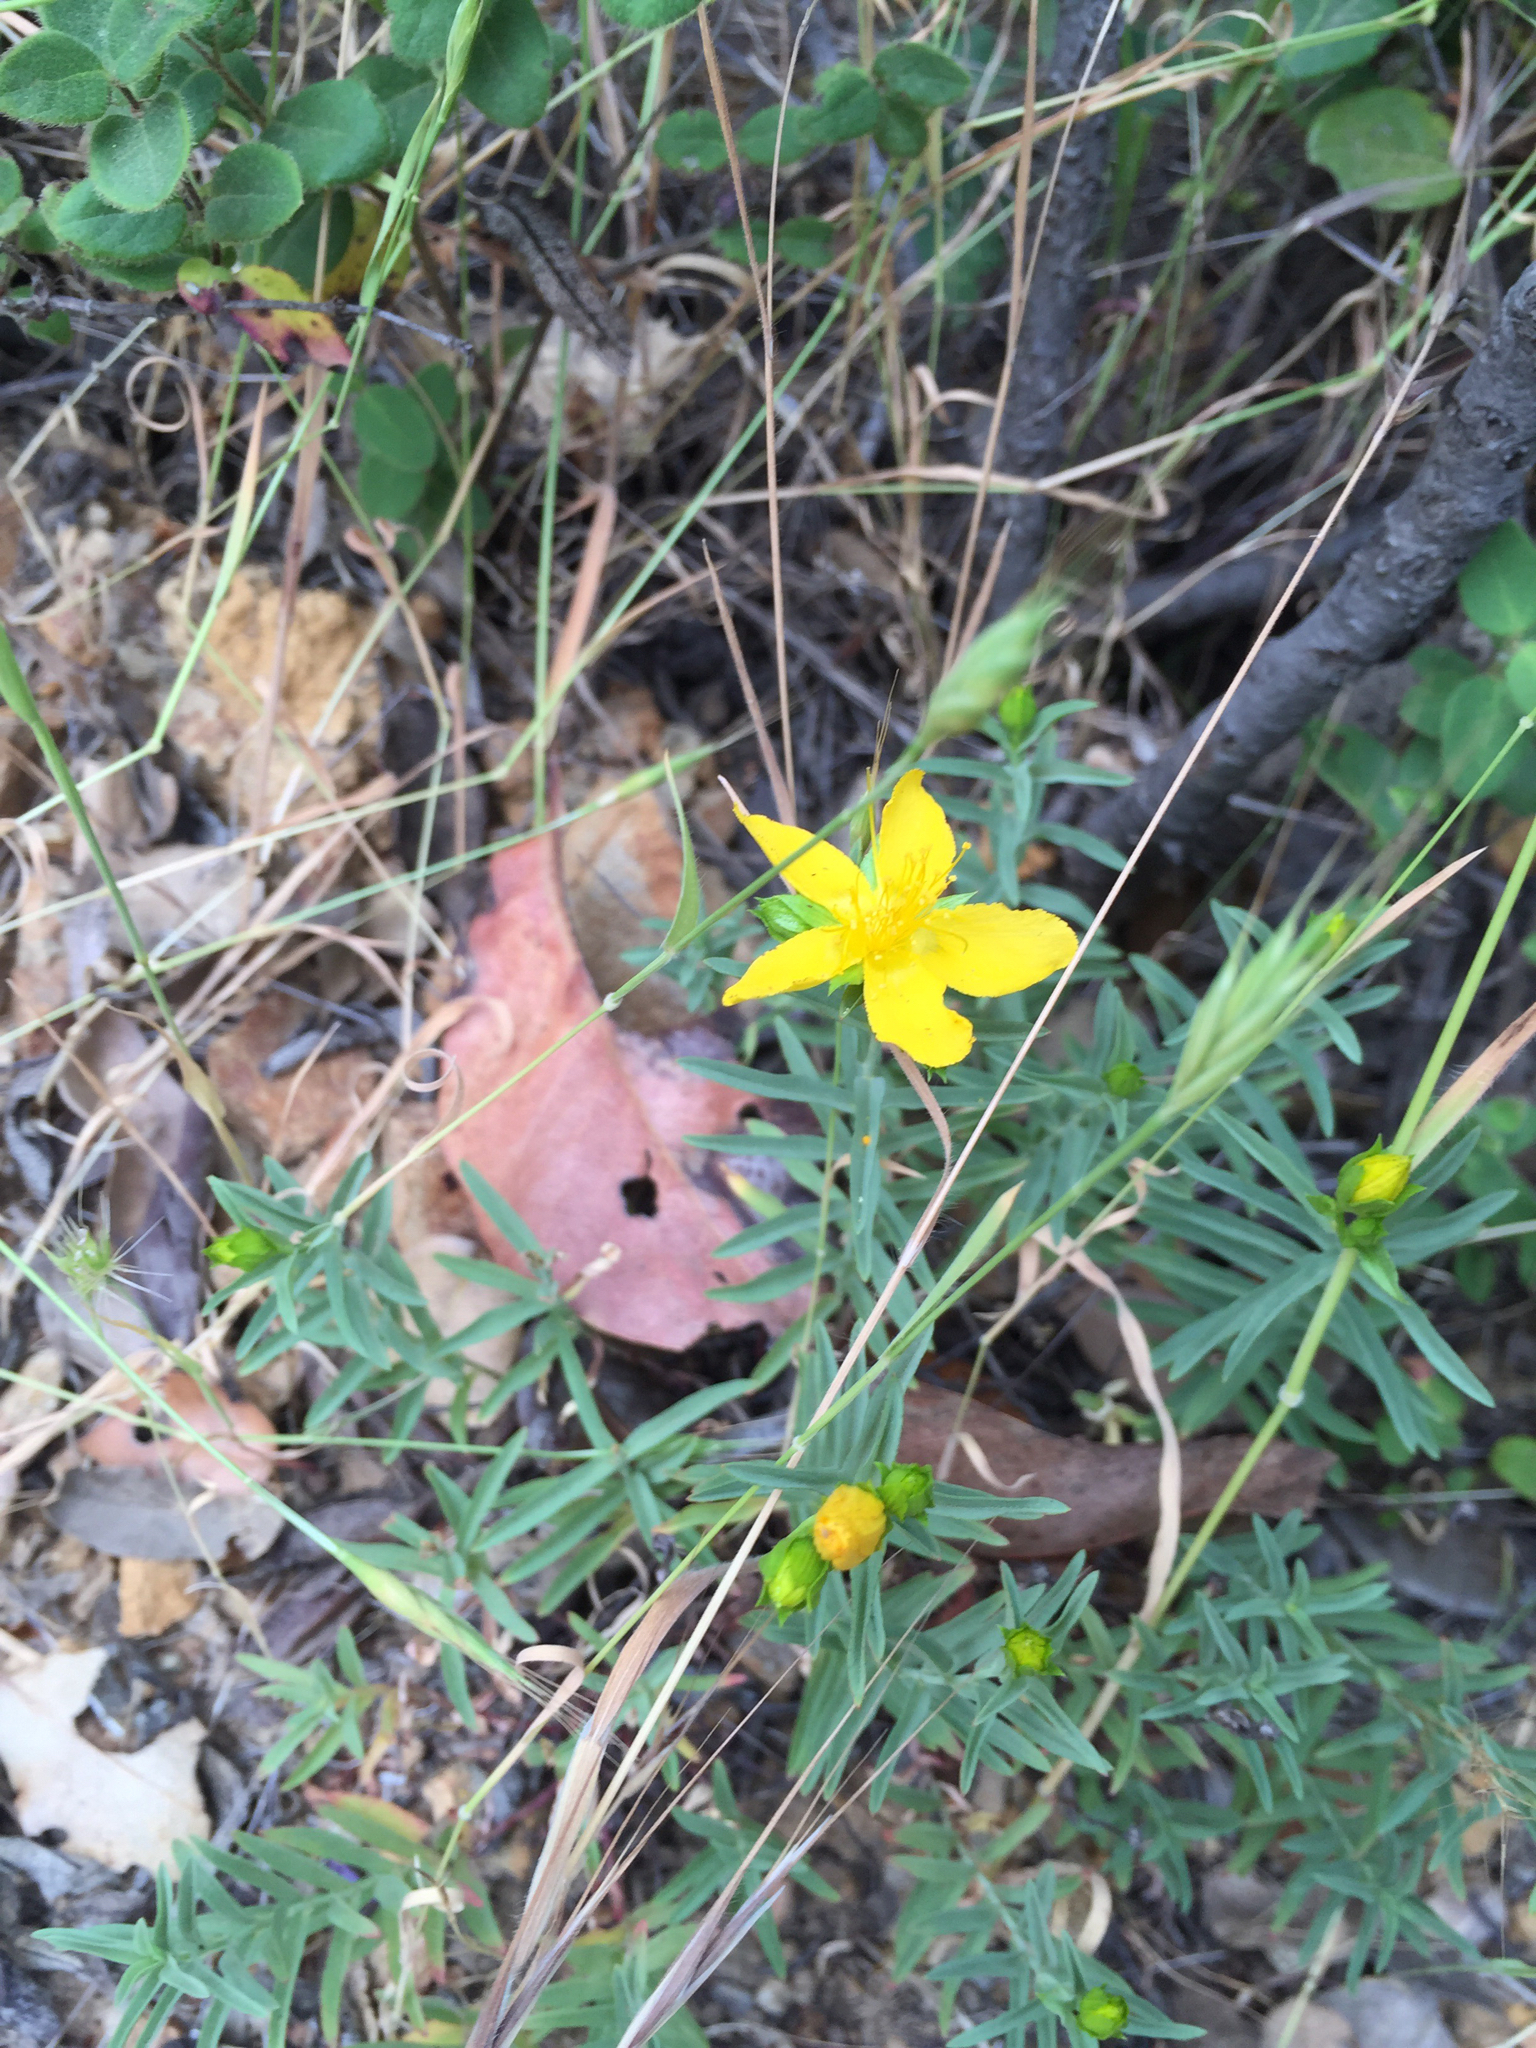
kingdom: Plantae
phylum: Tracheophyta
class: Magnoliopsida
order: Malpighiales
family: Hypericaceae
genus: Hypericum
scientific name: Hypericum concinnum
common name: Gold-wire
